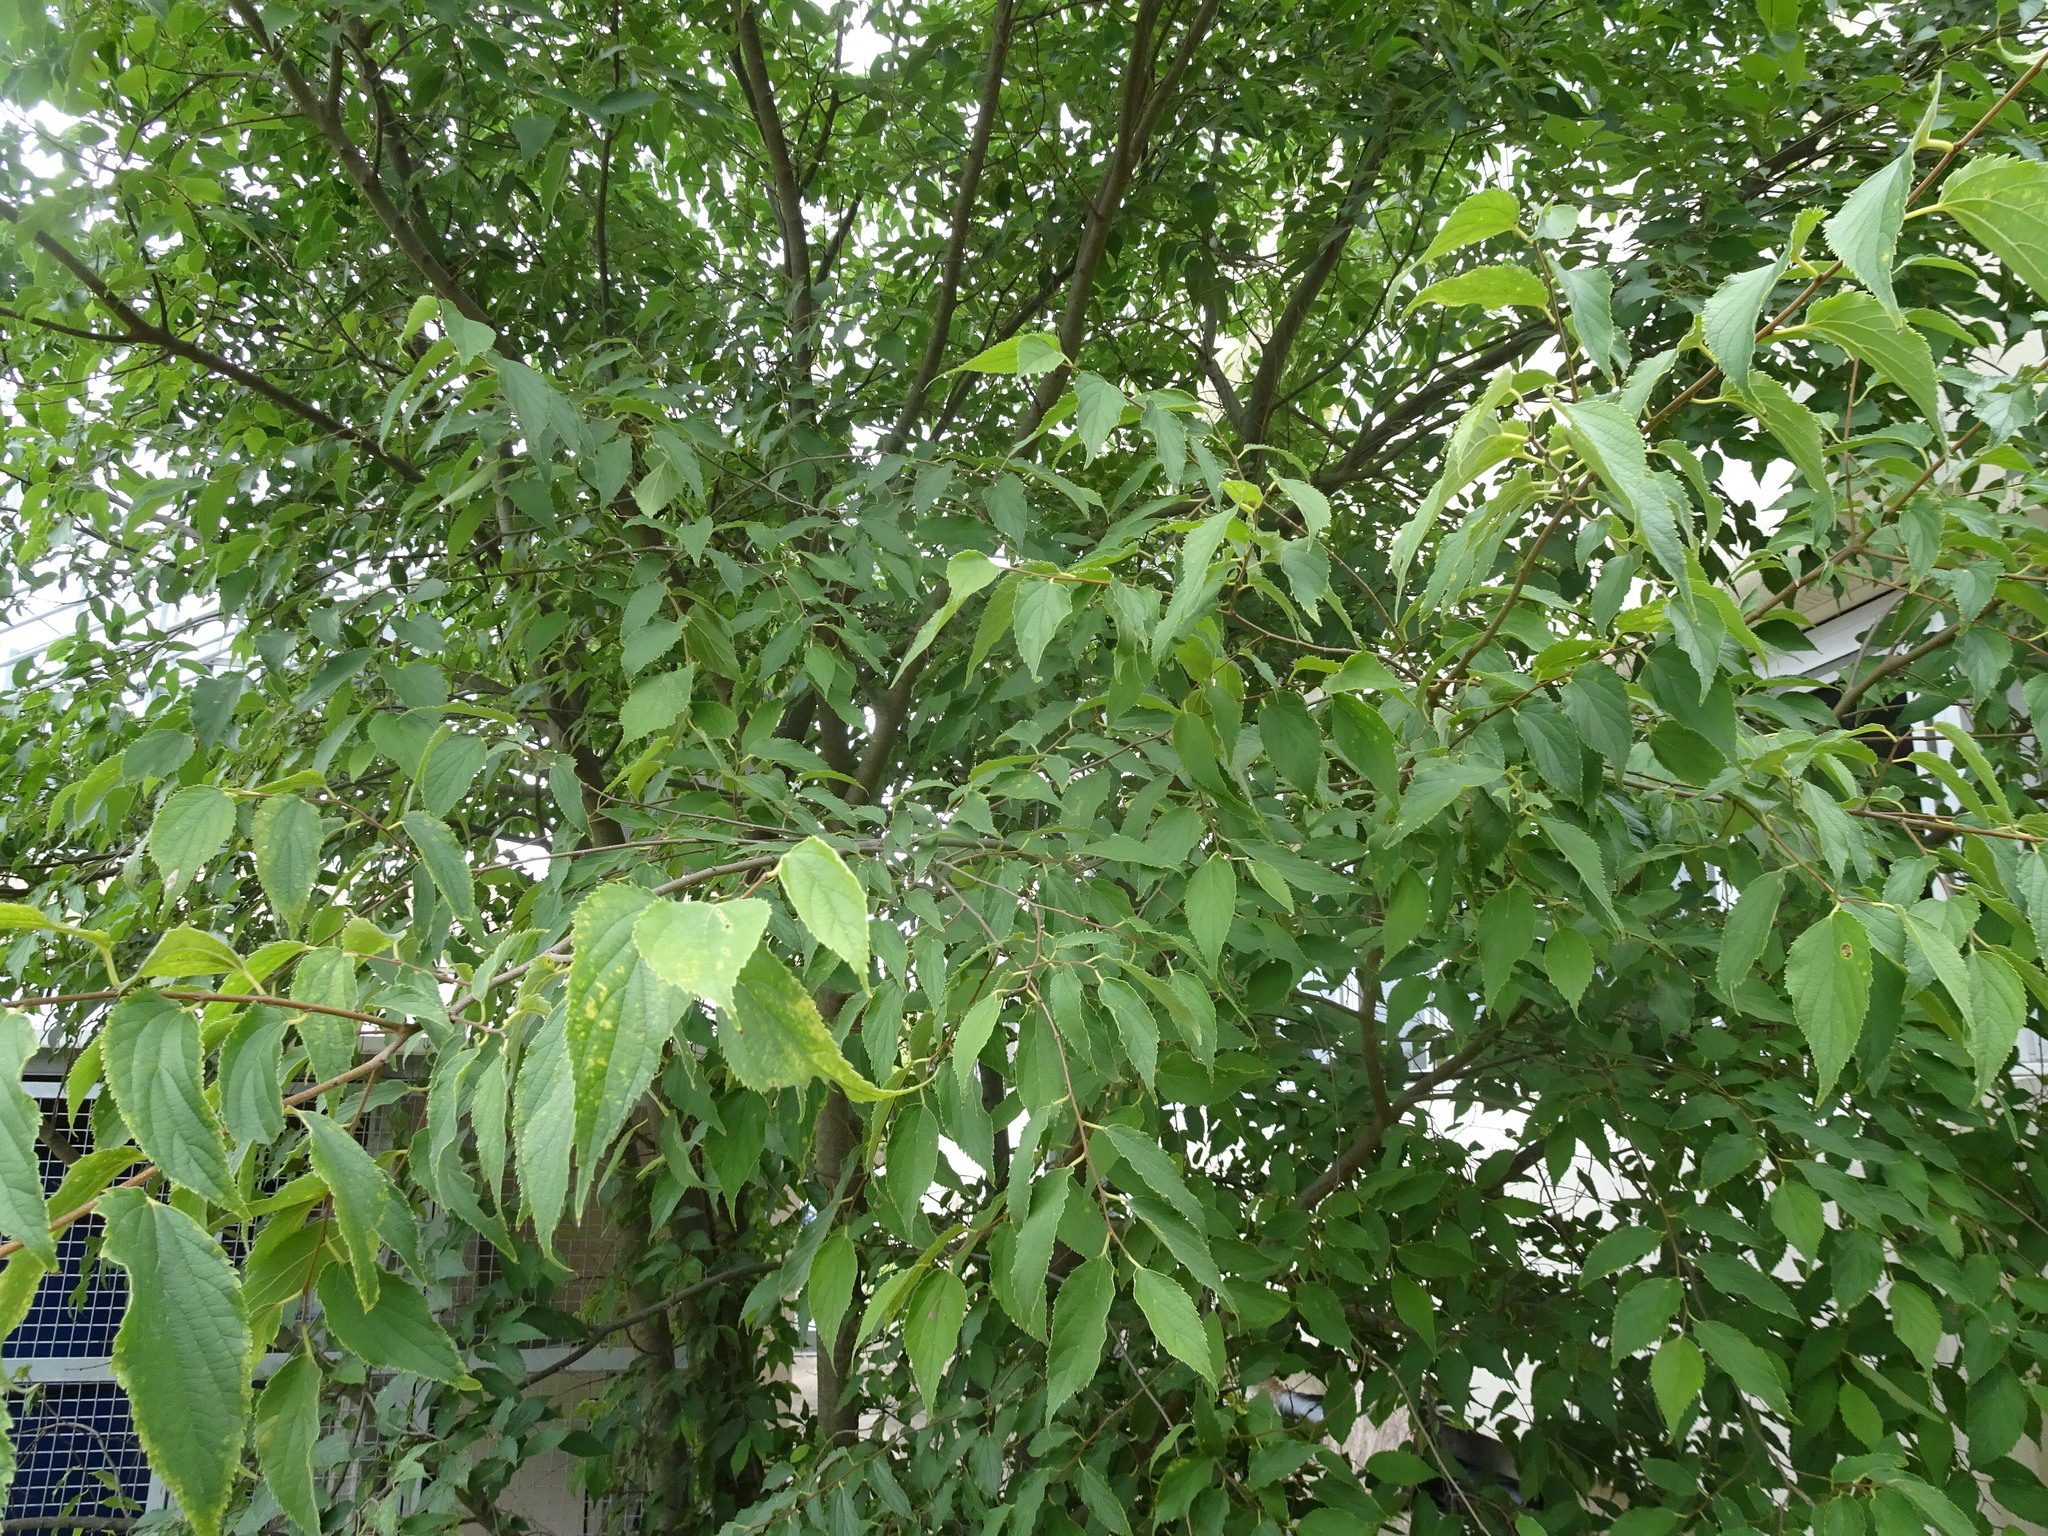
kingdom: Plantae
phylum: Tracheophyta
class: Magnoliopsida
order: Rosales
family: Cannabaceae
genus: Celtis
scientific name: Celtis australis
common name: European hackberry
